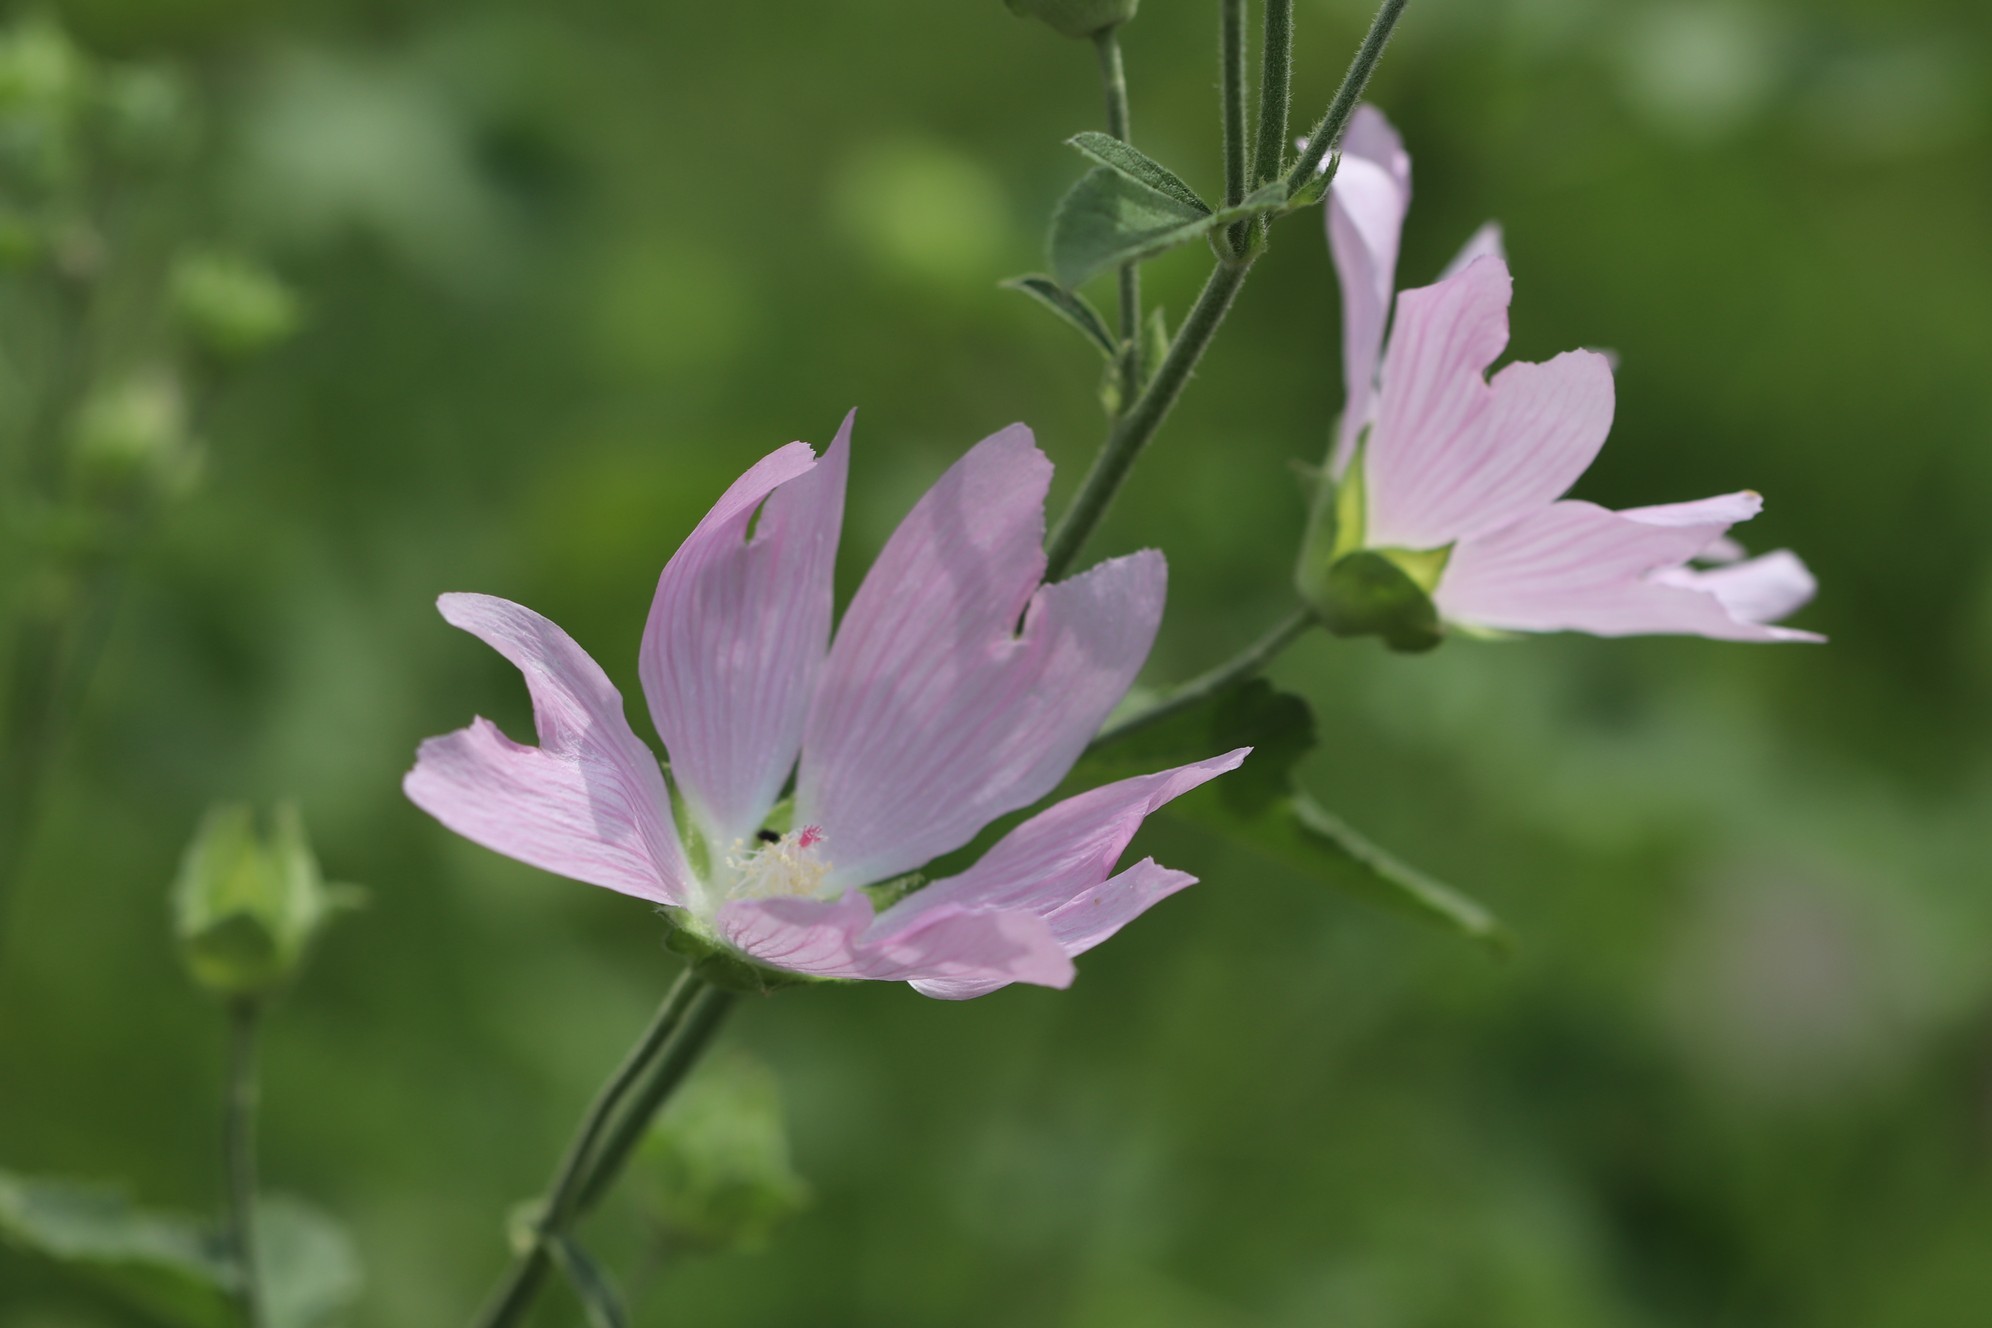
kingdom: Plantae
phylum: Tracheophyta
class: Magnoliopsida
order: Malvales
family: Malvaceae
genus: Malva
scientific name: Malva thuringiaca
